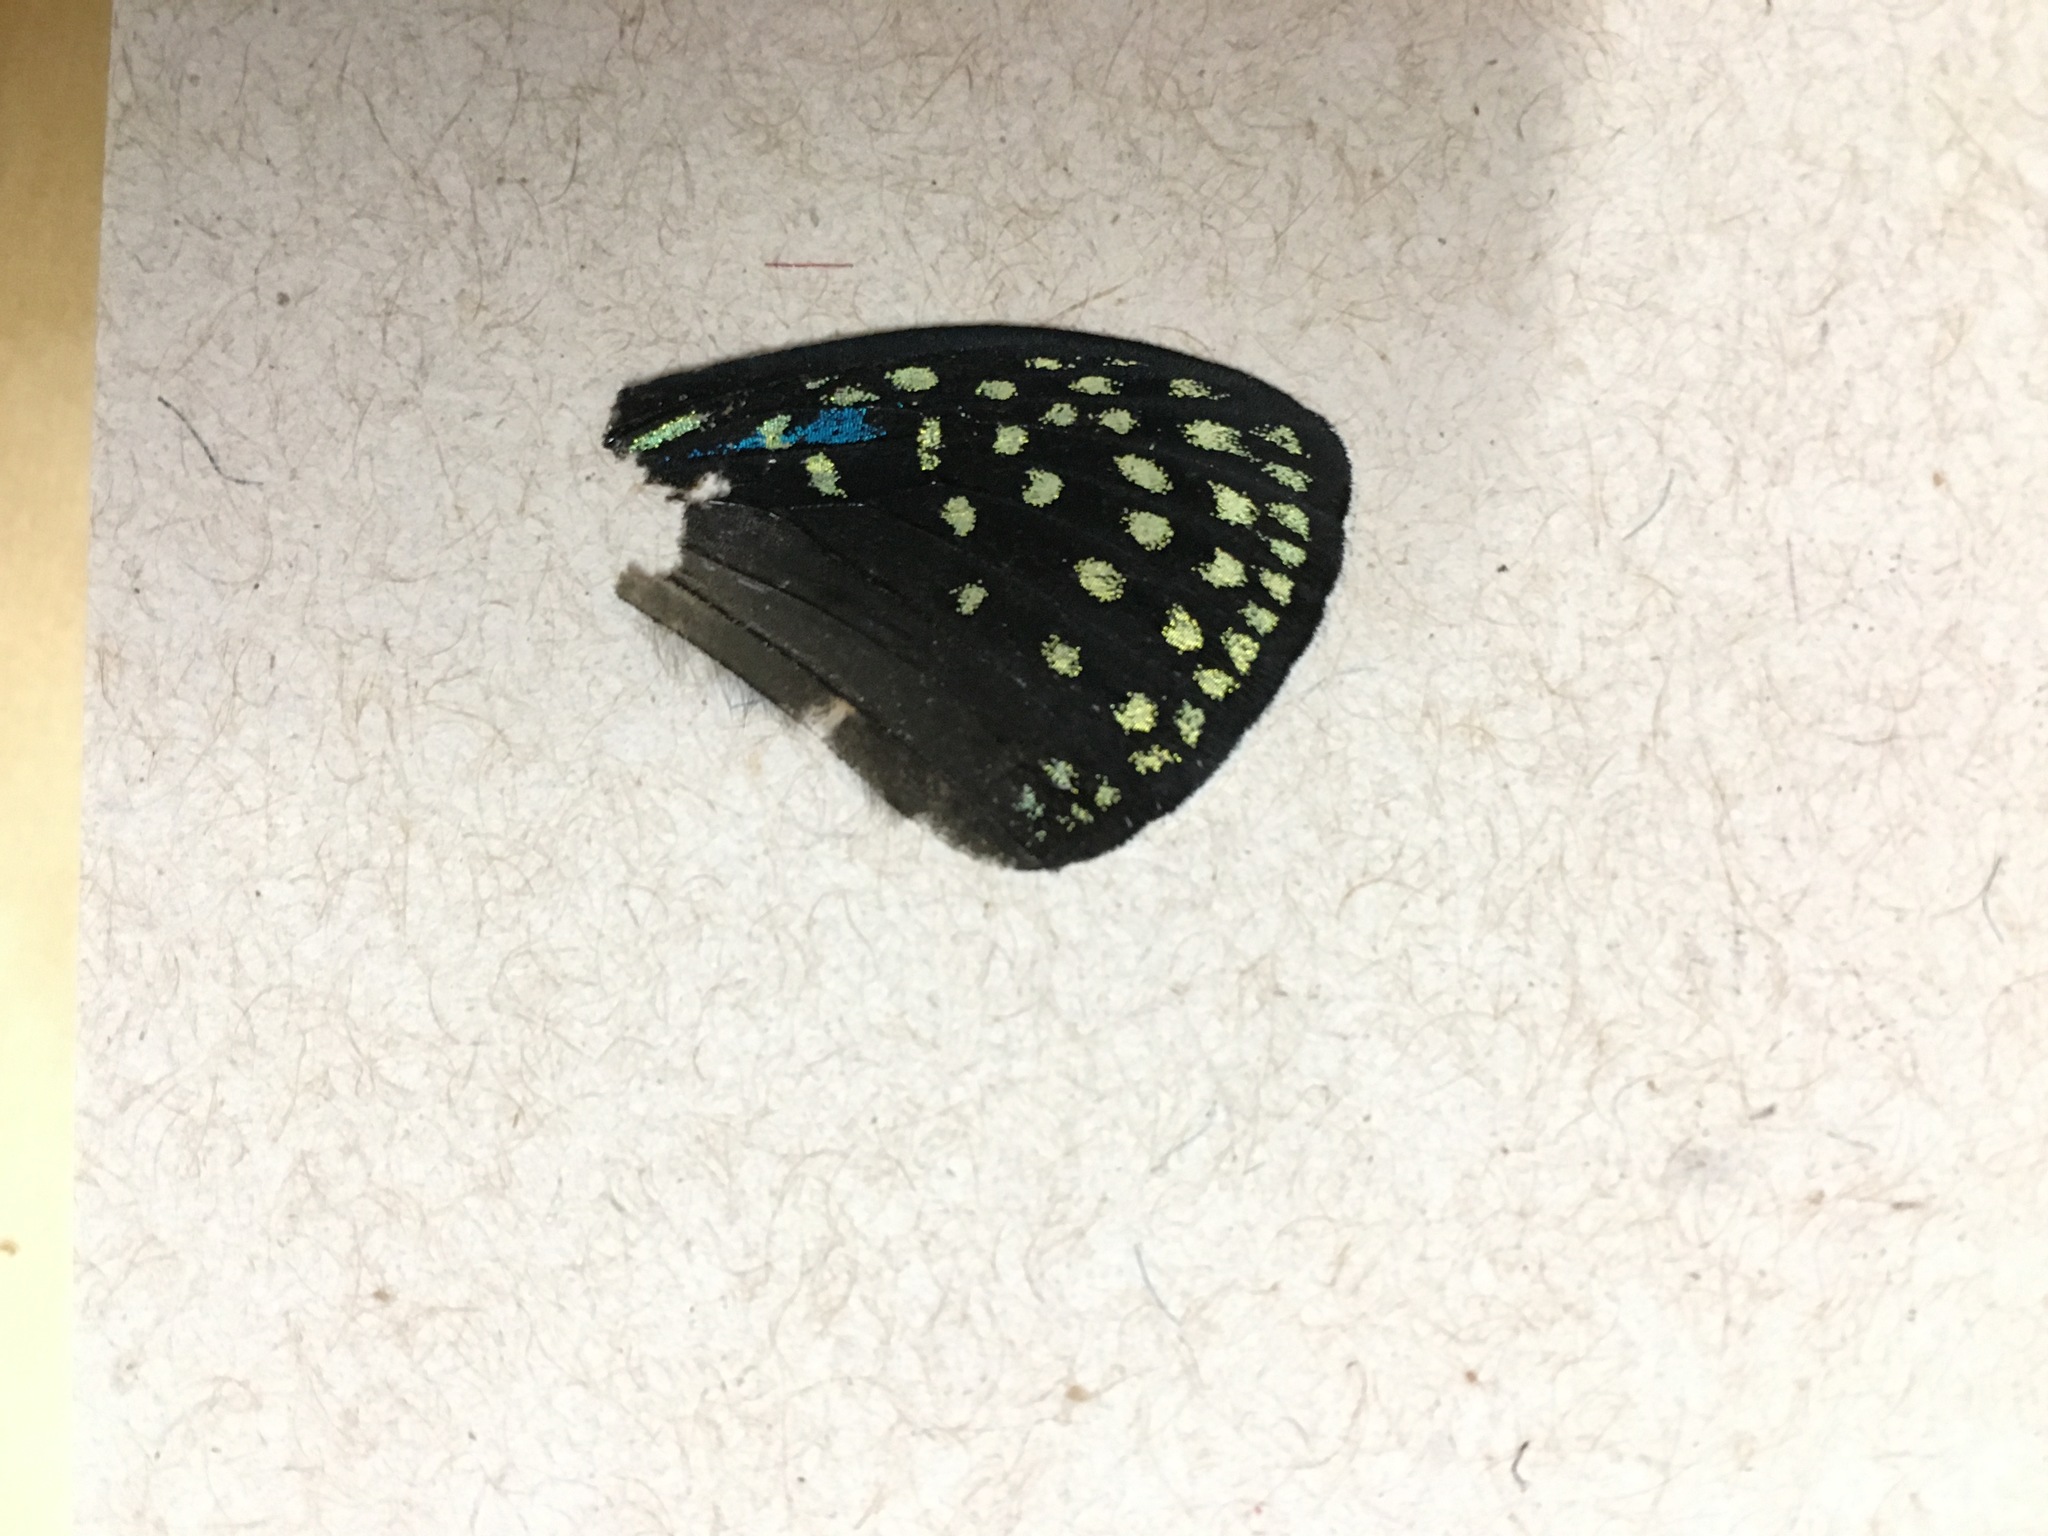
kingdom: Animalia
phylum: Arthropoda
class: Insecta
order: Lepidoptera
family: Lycaenidae
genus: Eumaeus
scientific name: Eumaeus childrenae
